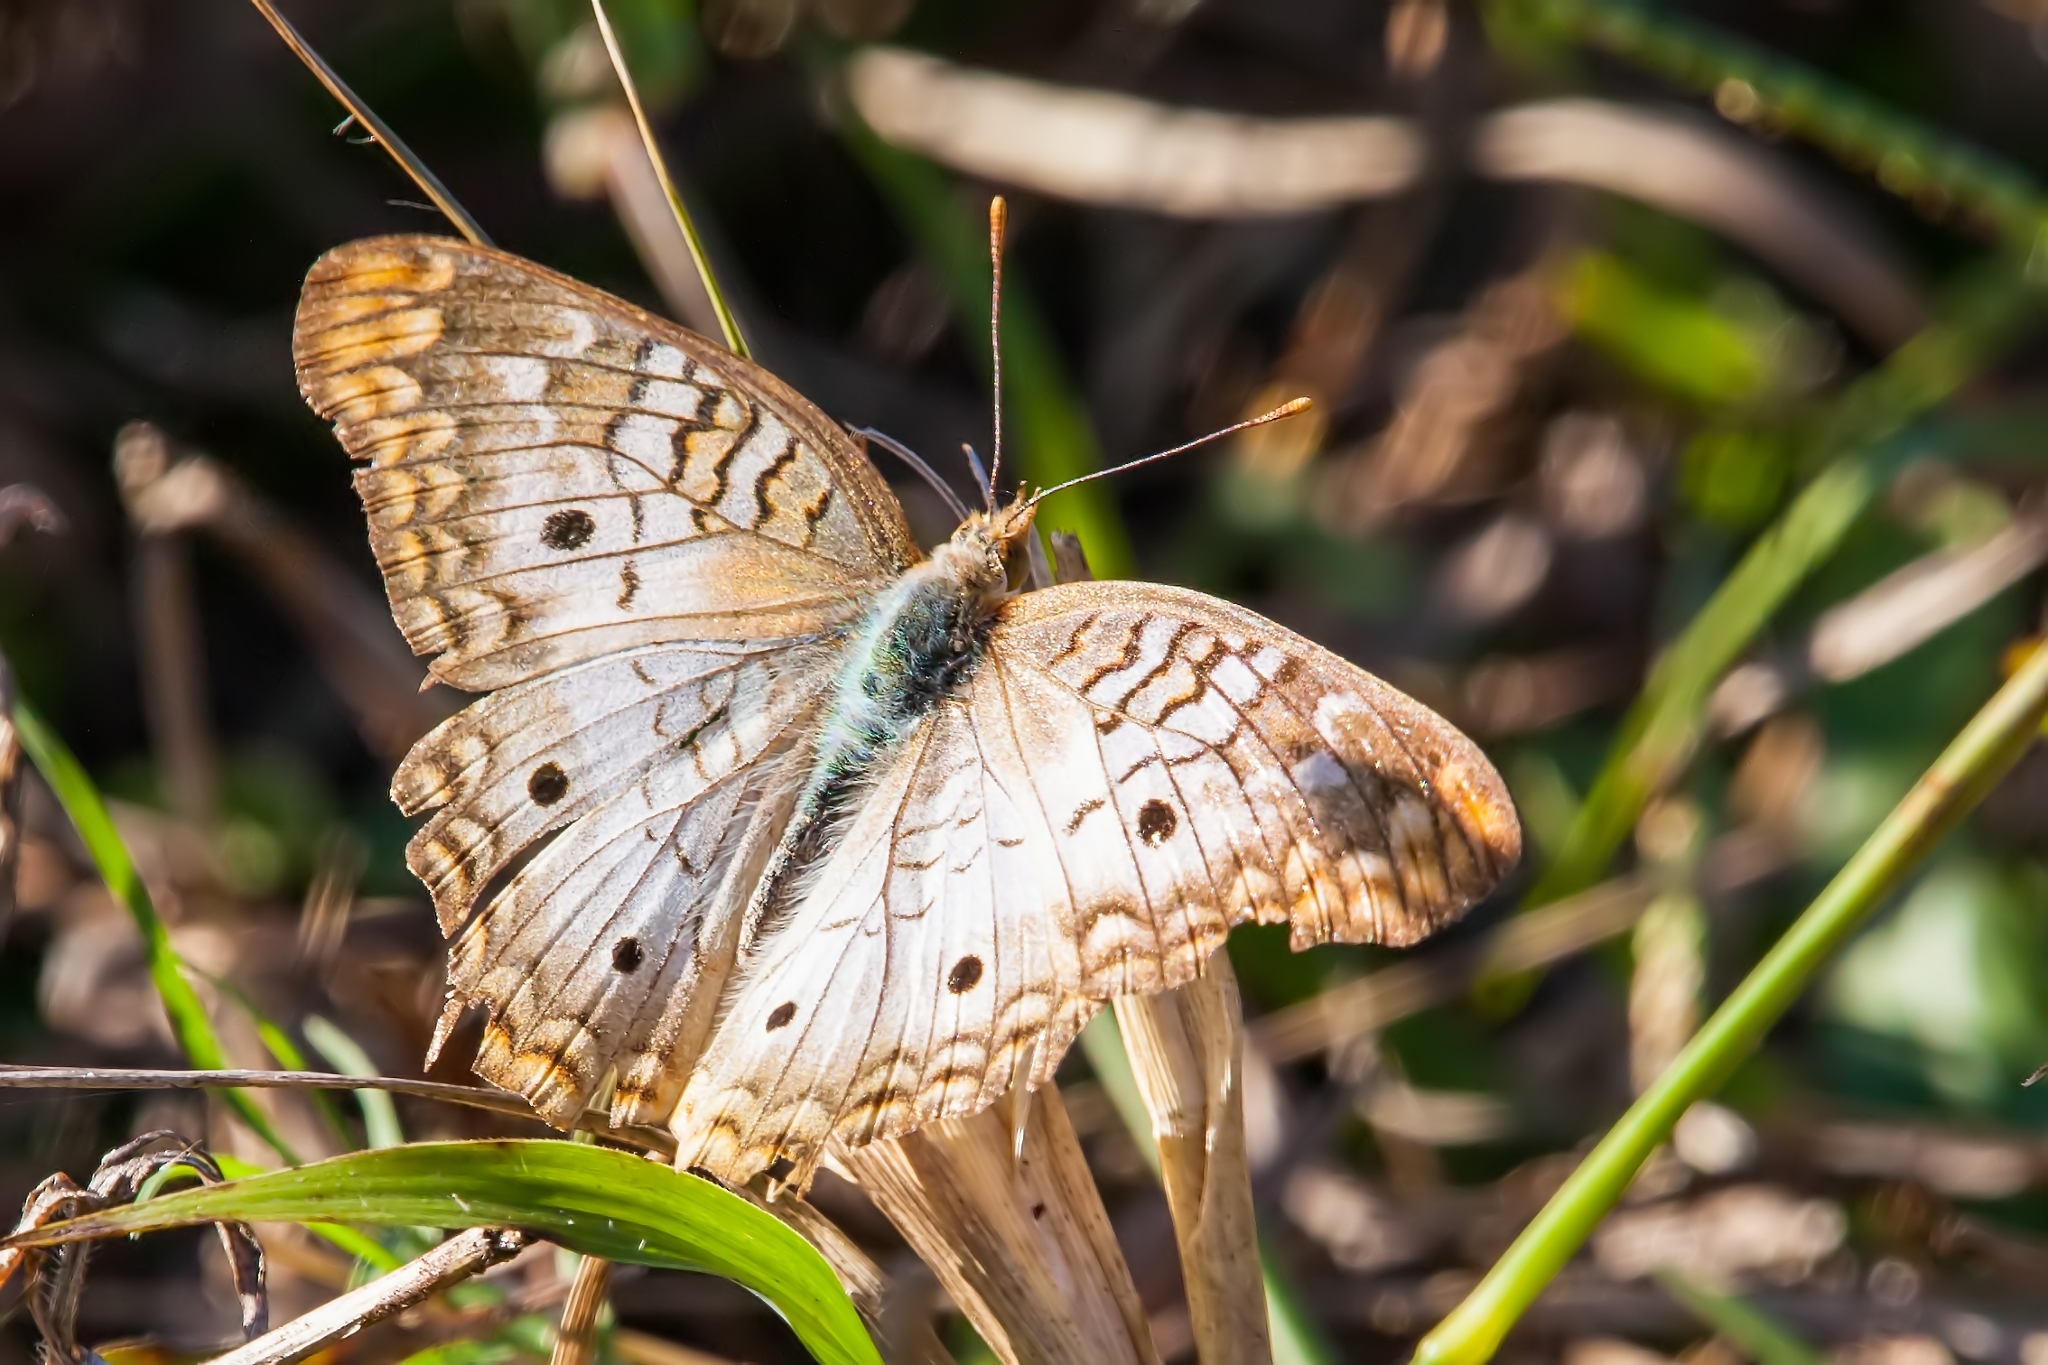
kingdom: Animalia
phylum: Arthropoda
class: Insecta
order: Lepidoptera
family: Nymphalidae
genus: Anartia
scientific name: Anartia jatrophae
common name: White peacock
